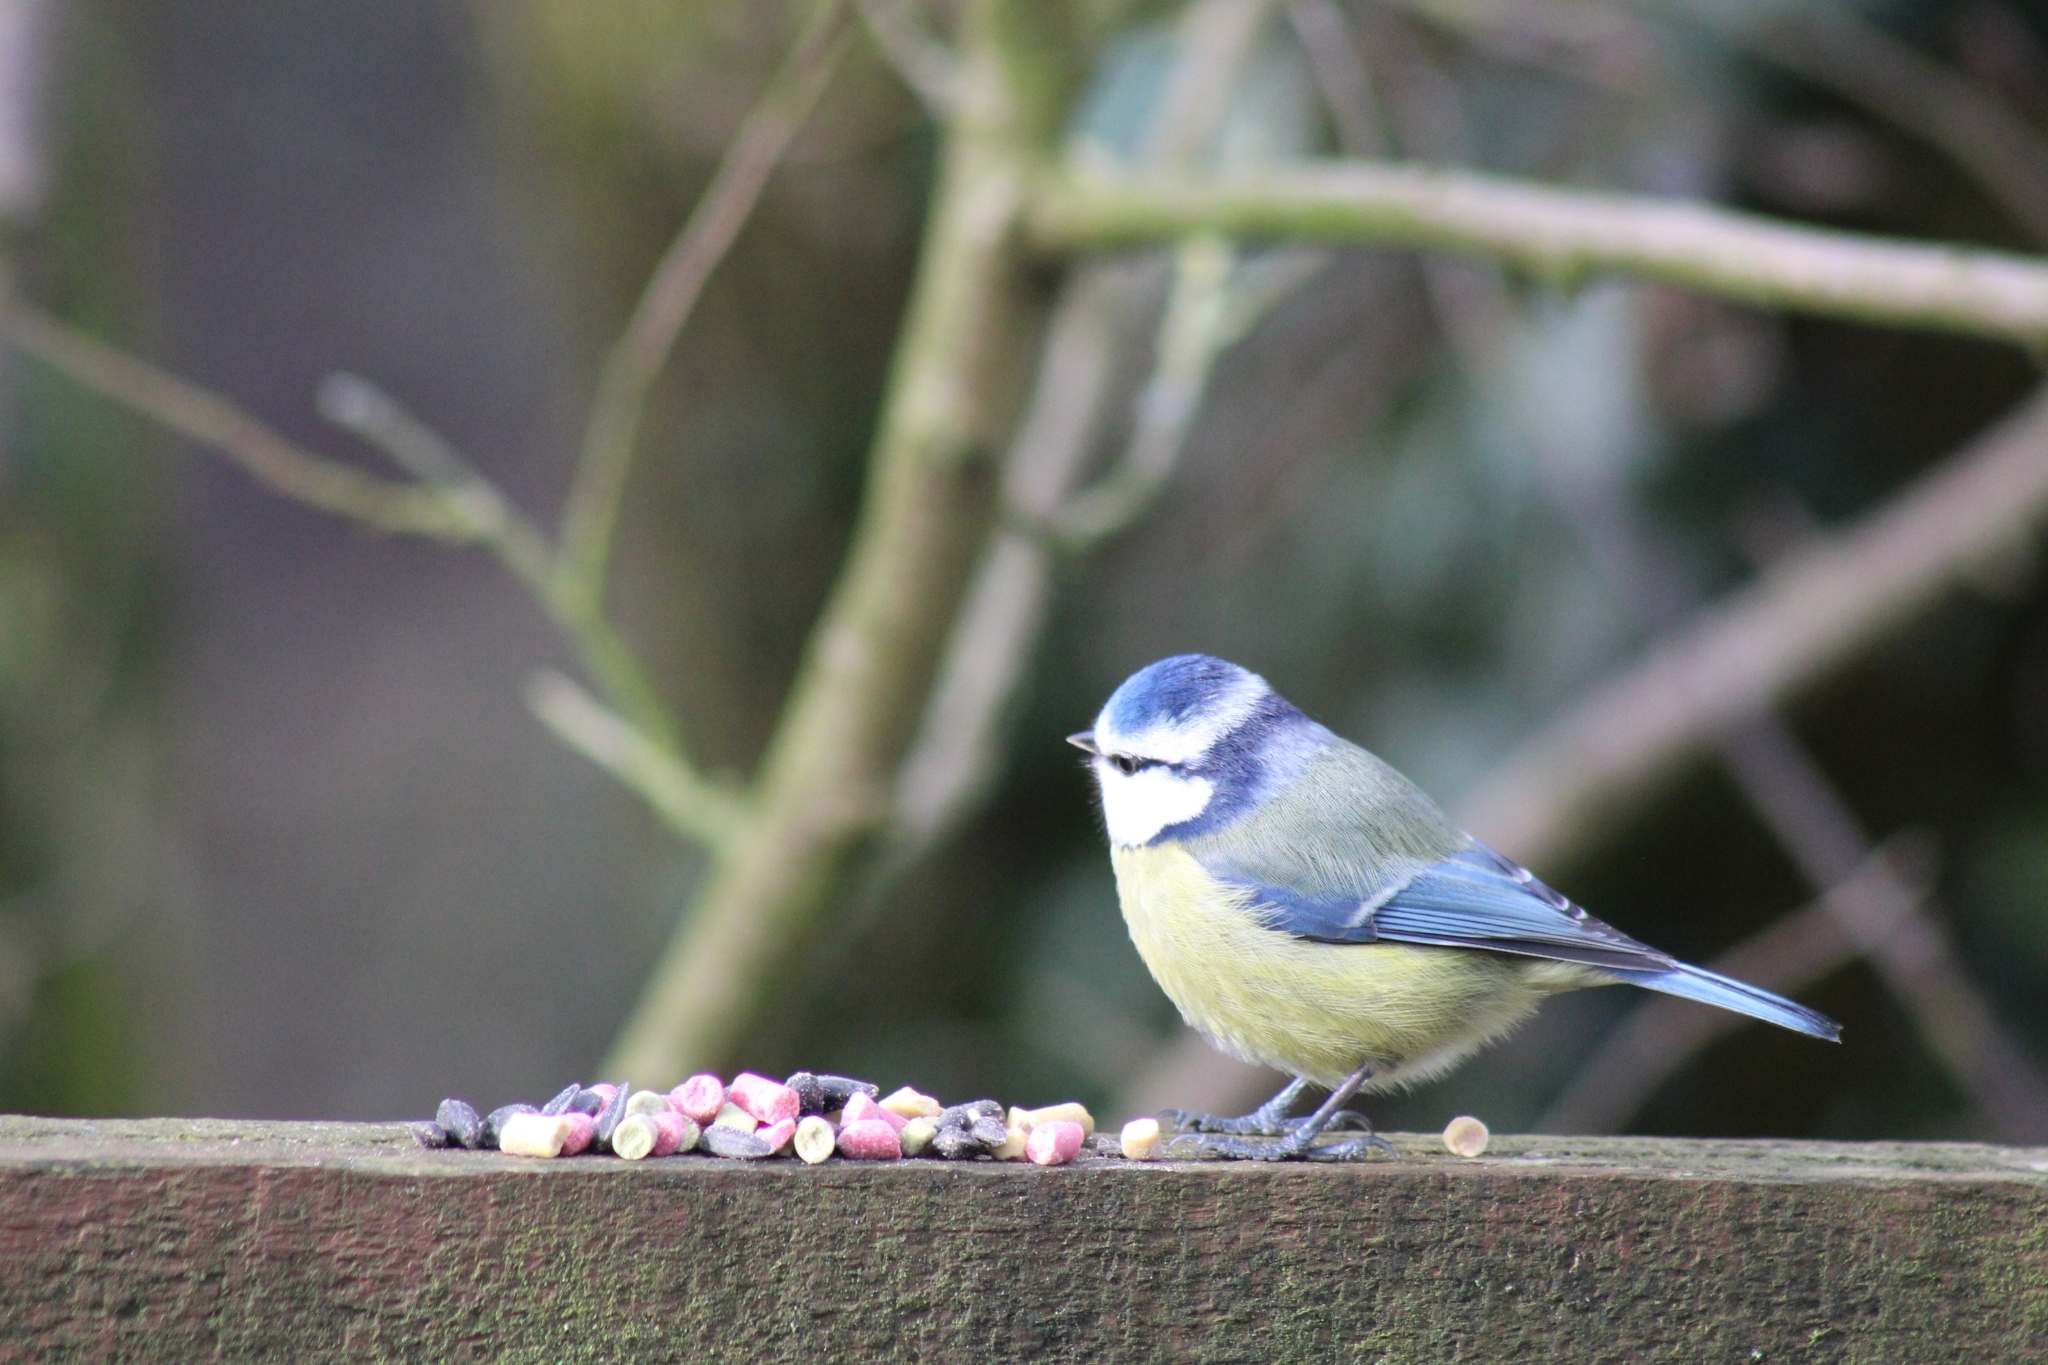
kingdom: Animalia
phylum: Chordata
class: Aves
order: Passeriformes
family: Paridae
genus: Cyanistes
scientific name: Cyanistes caeruleus
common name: Eurasian blue tit
